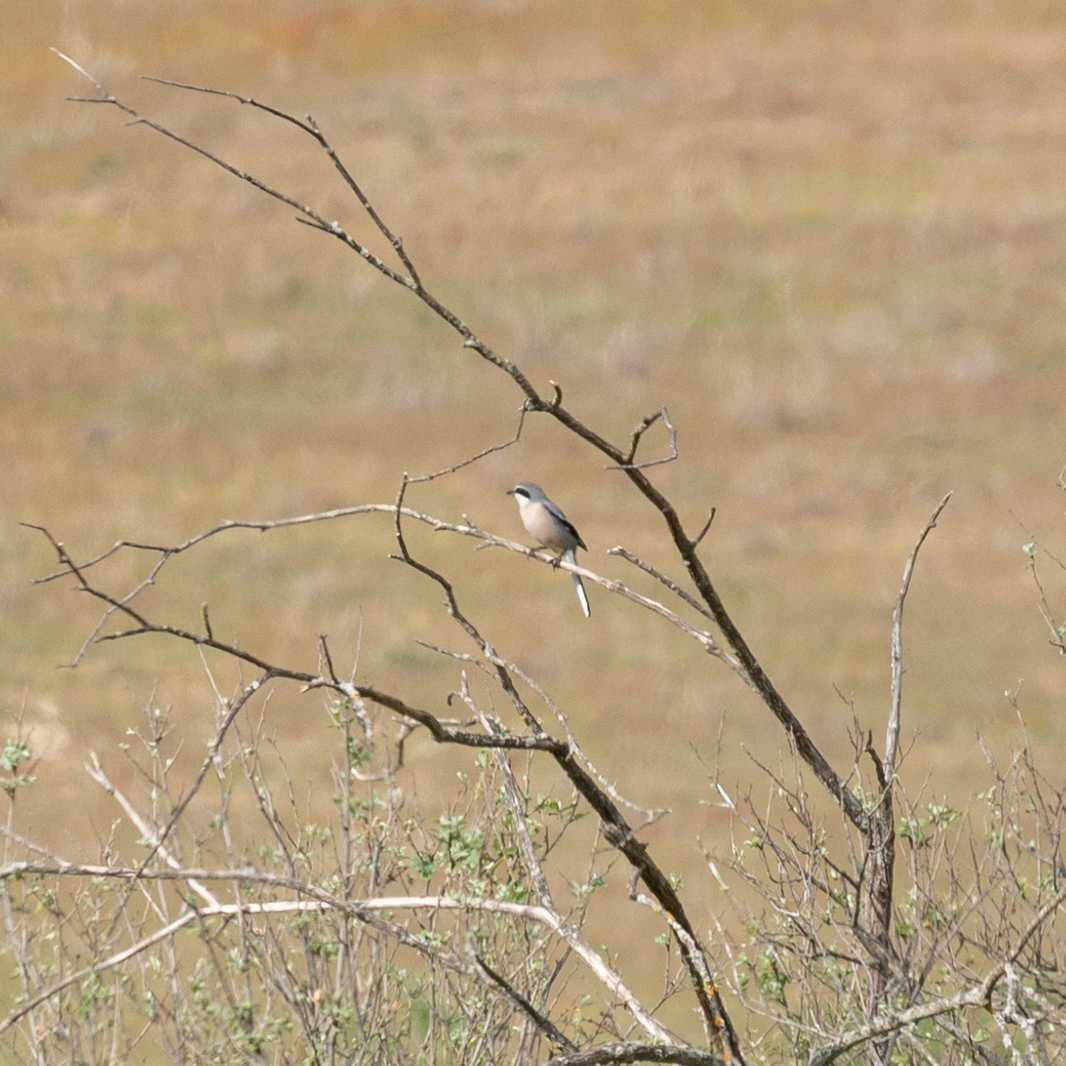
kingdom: Animalia
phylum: Chordata
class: Aves
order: Passeriformes
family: Laniidae
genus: Lanius
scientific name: Lanius meridionalis
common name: Iberian grey shrike
